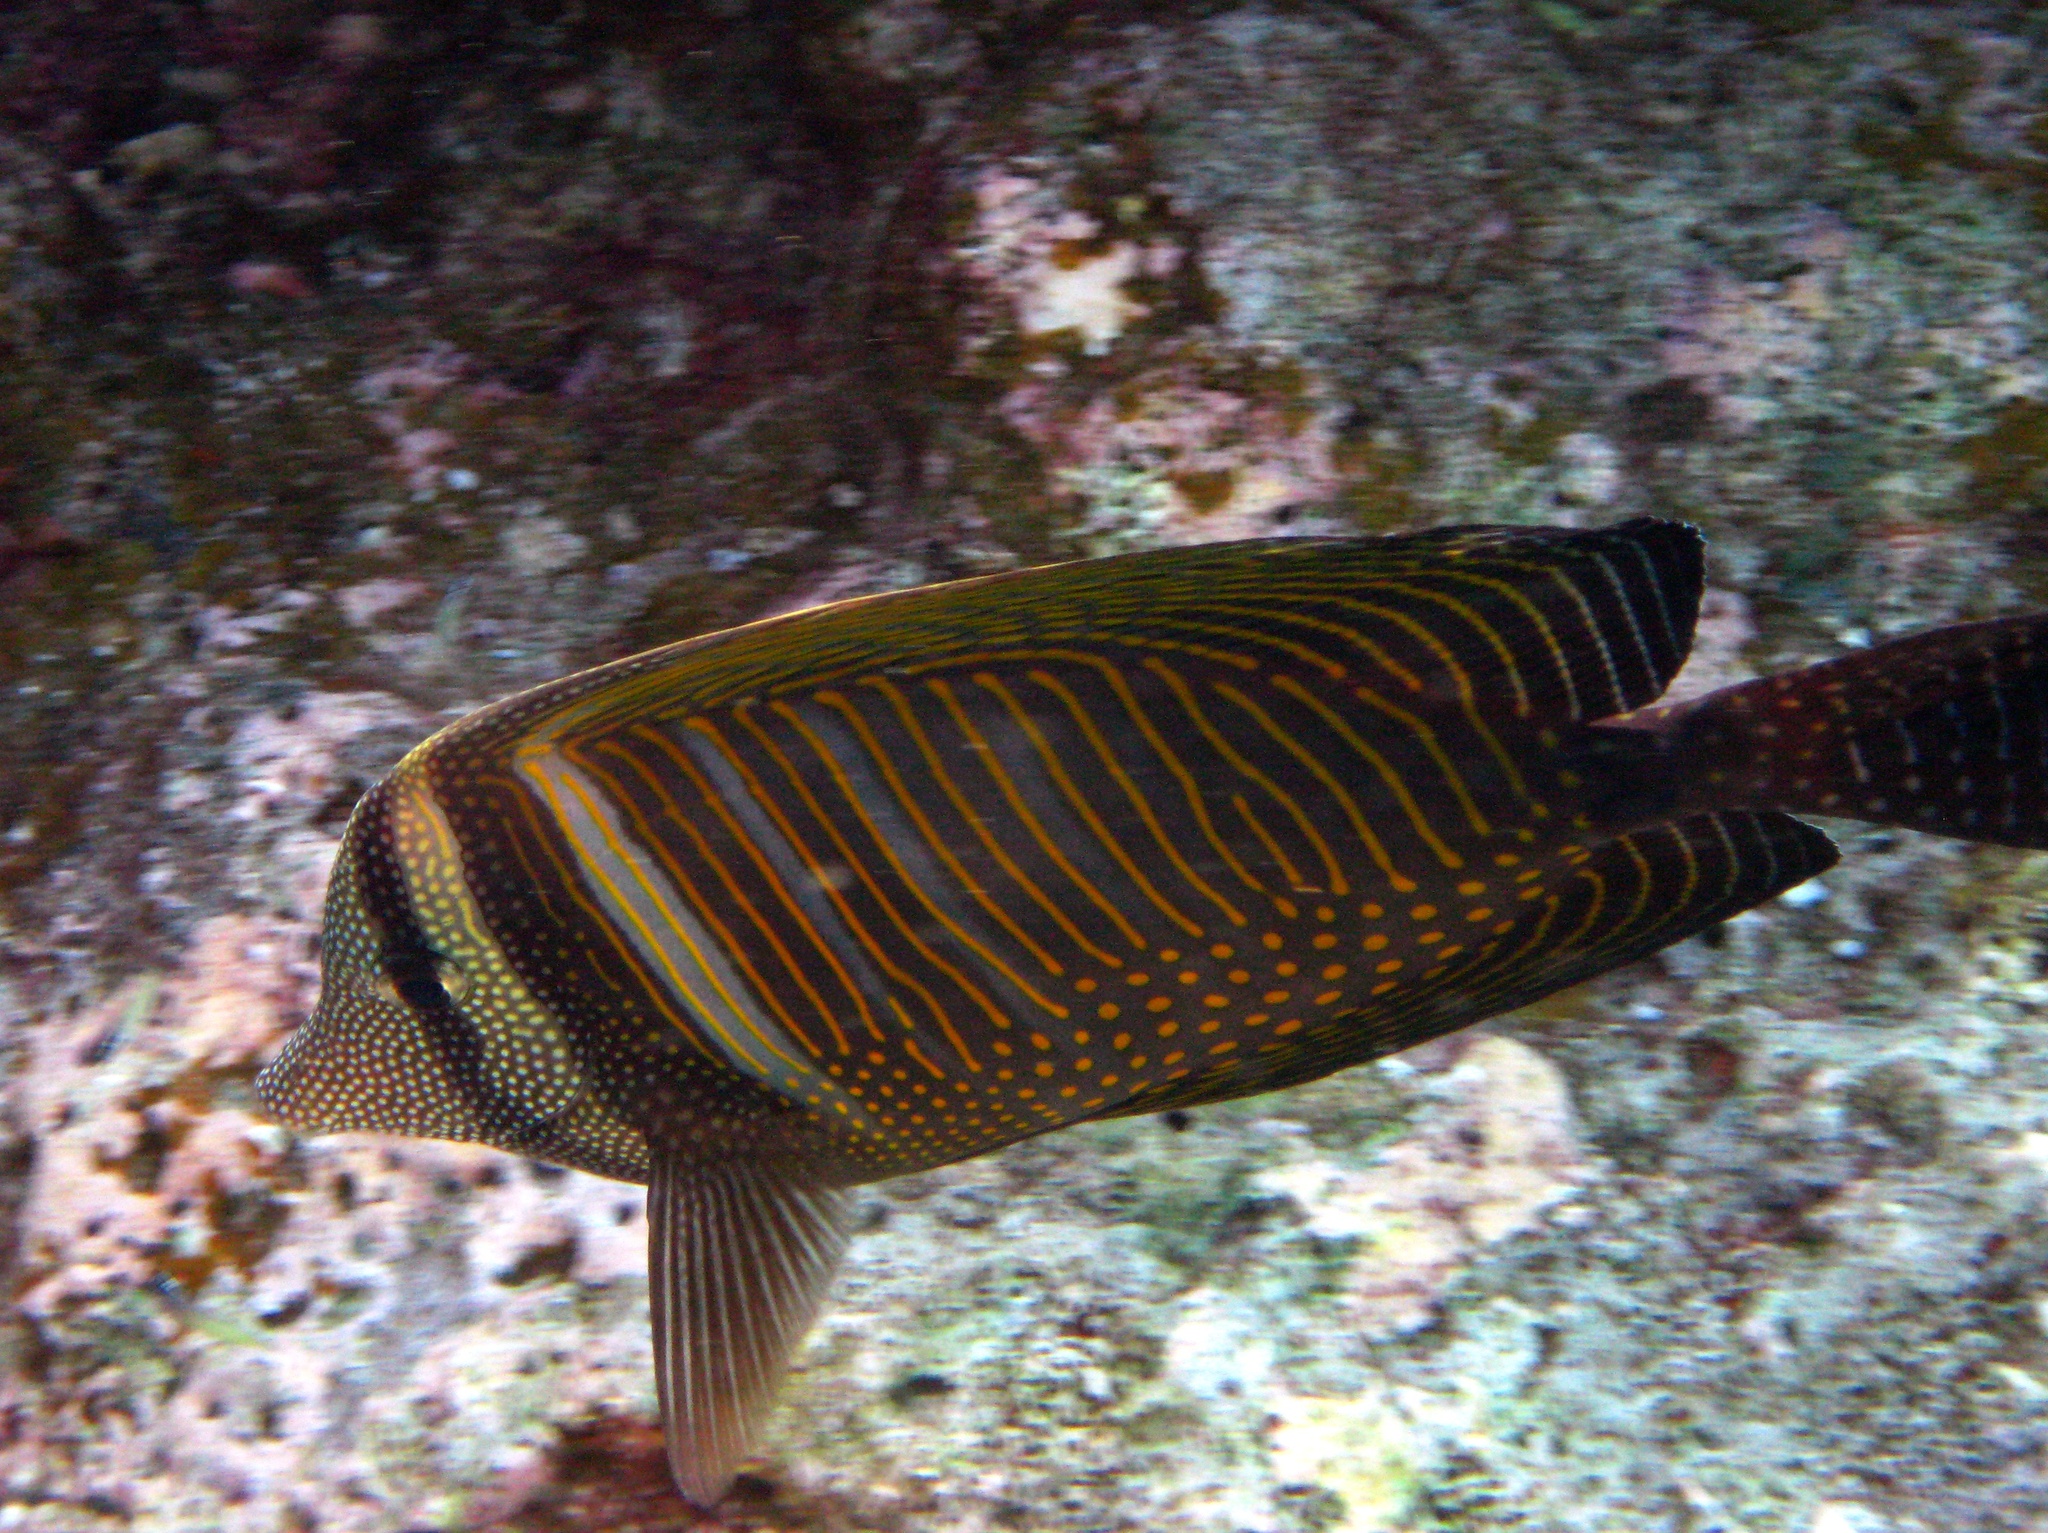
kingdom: Animalia
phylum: Chordata
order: Perciformes
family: Acanthuridae
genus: Zebrasoma
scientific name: Zebrasoma desjardinii
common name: Desjardin's sailfin tang
